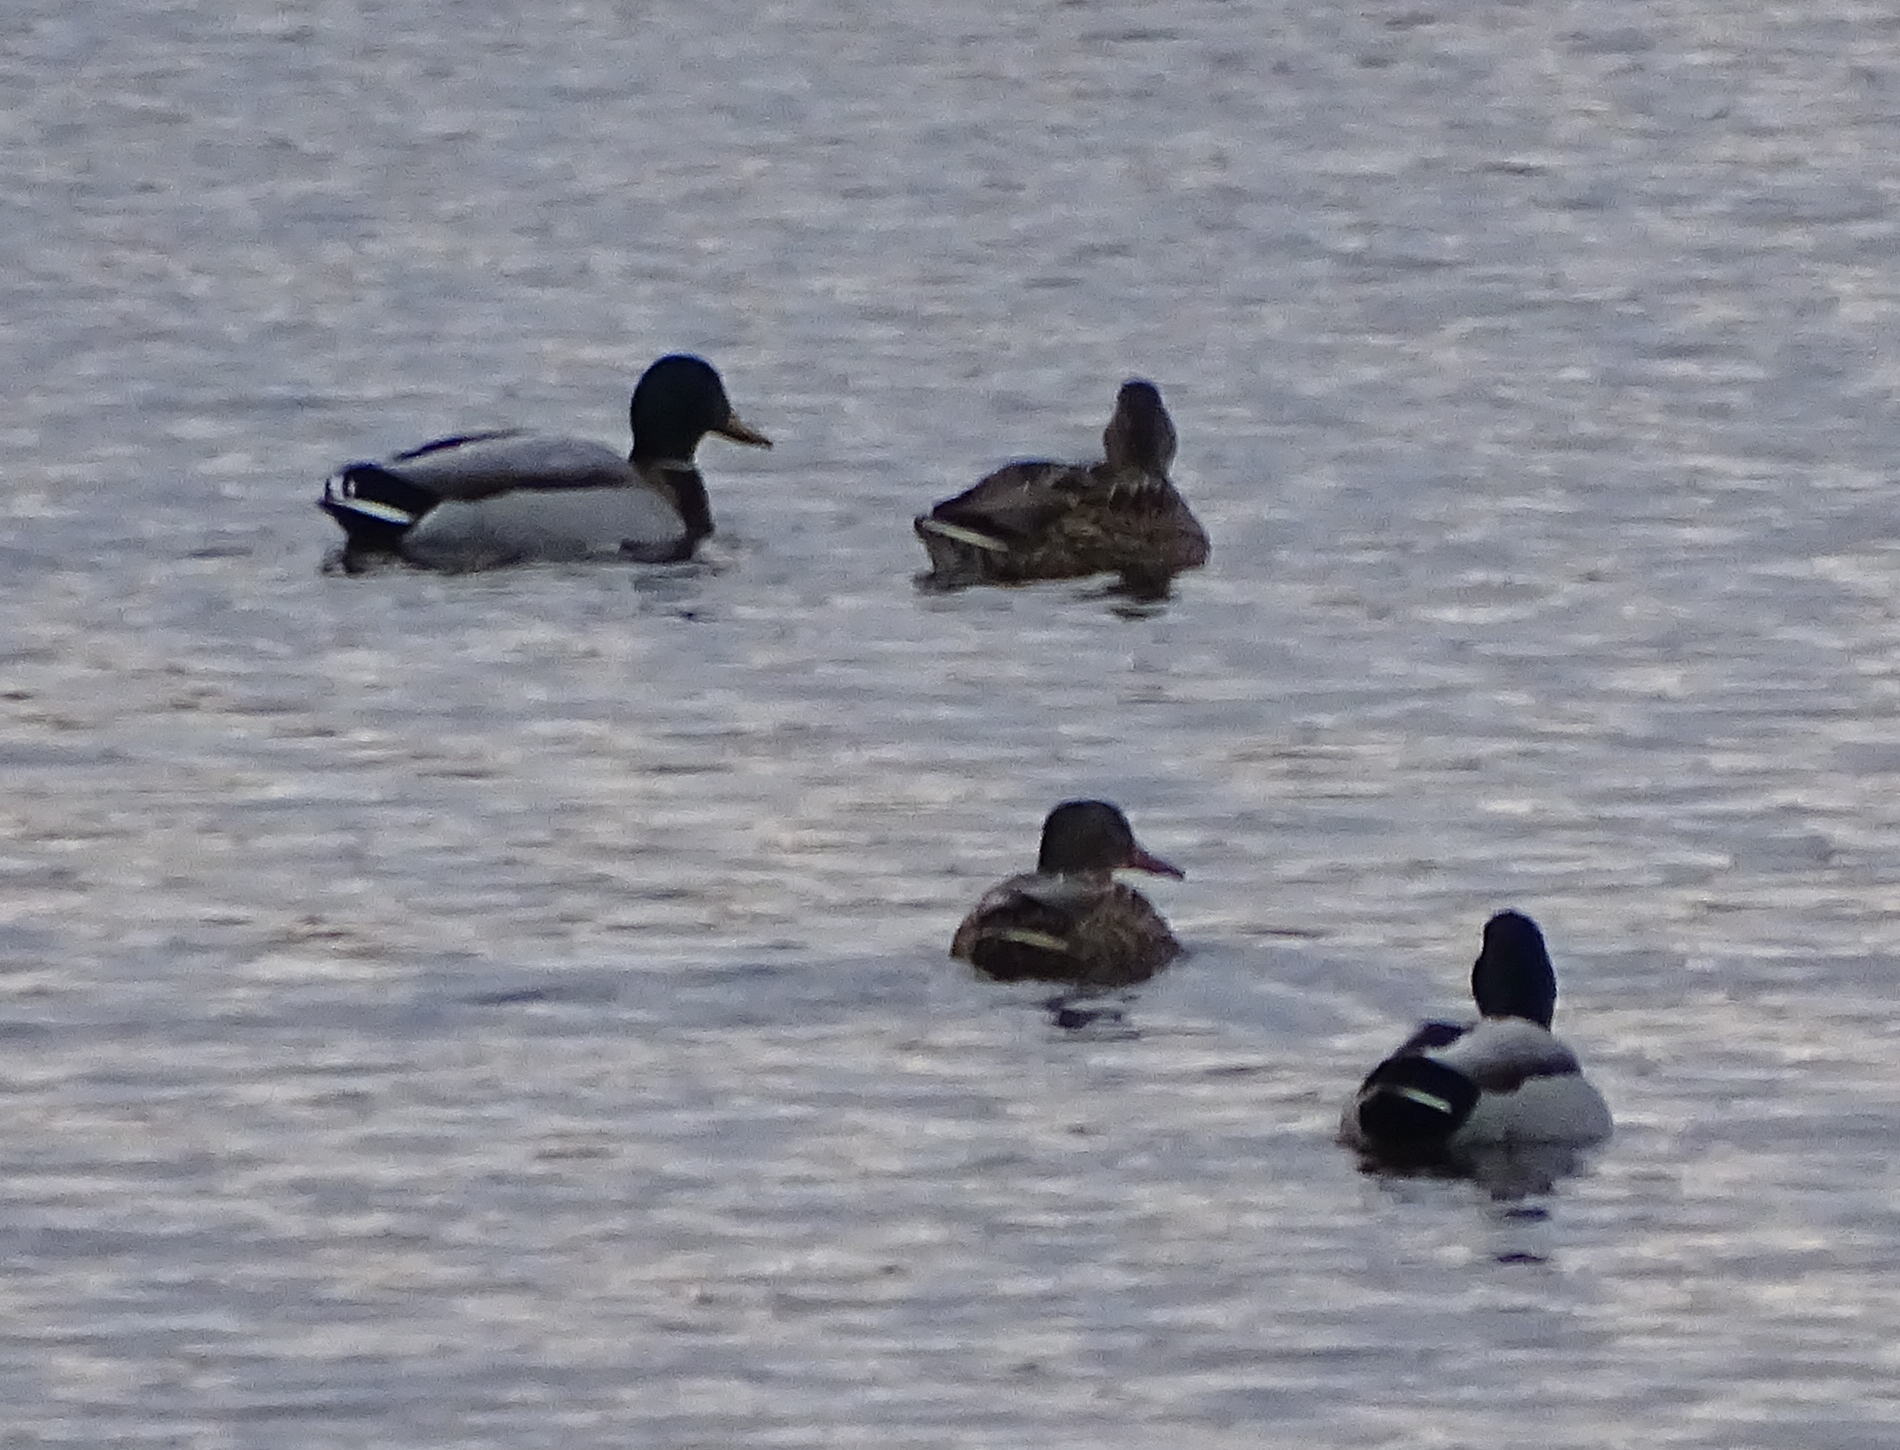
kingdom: Animalia
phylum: Chordata
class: Aves
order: Anseriformes
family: Anatidae
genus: Anas
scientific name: Anas platyrhynchos
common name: Mallard
